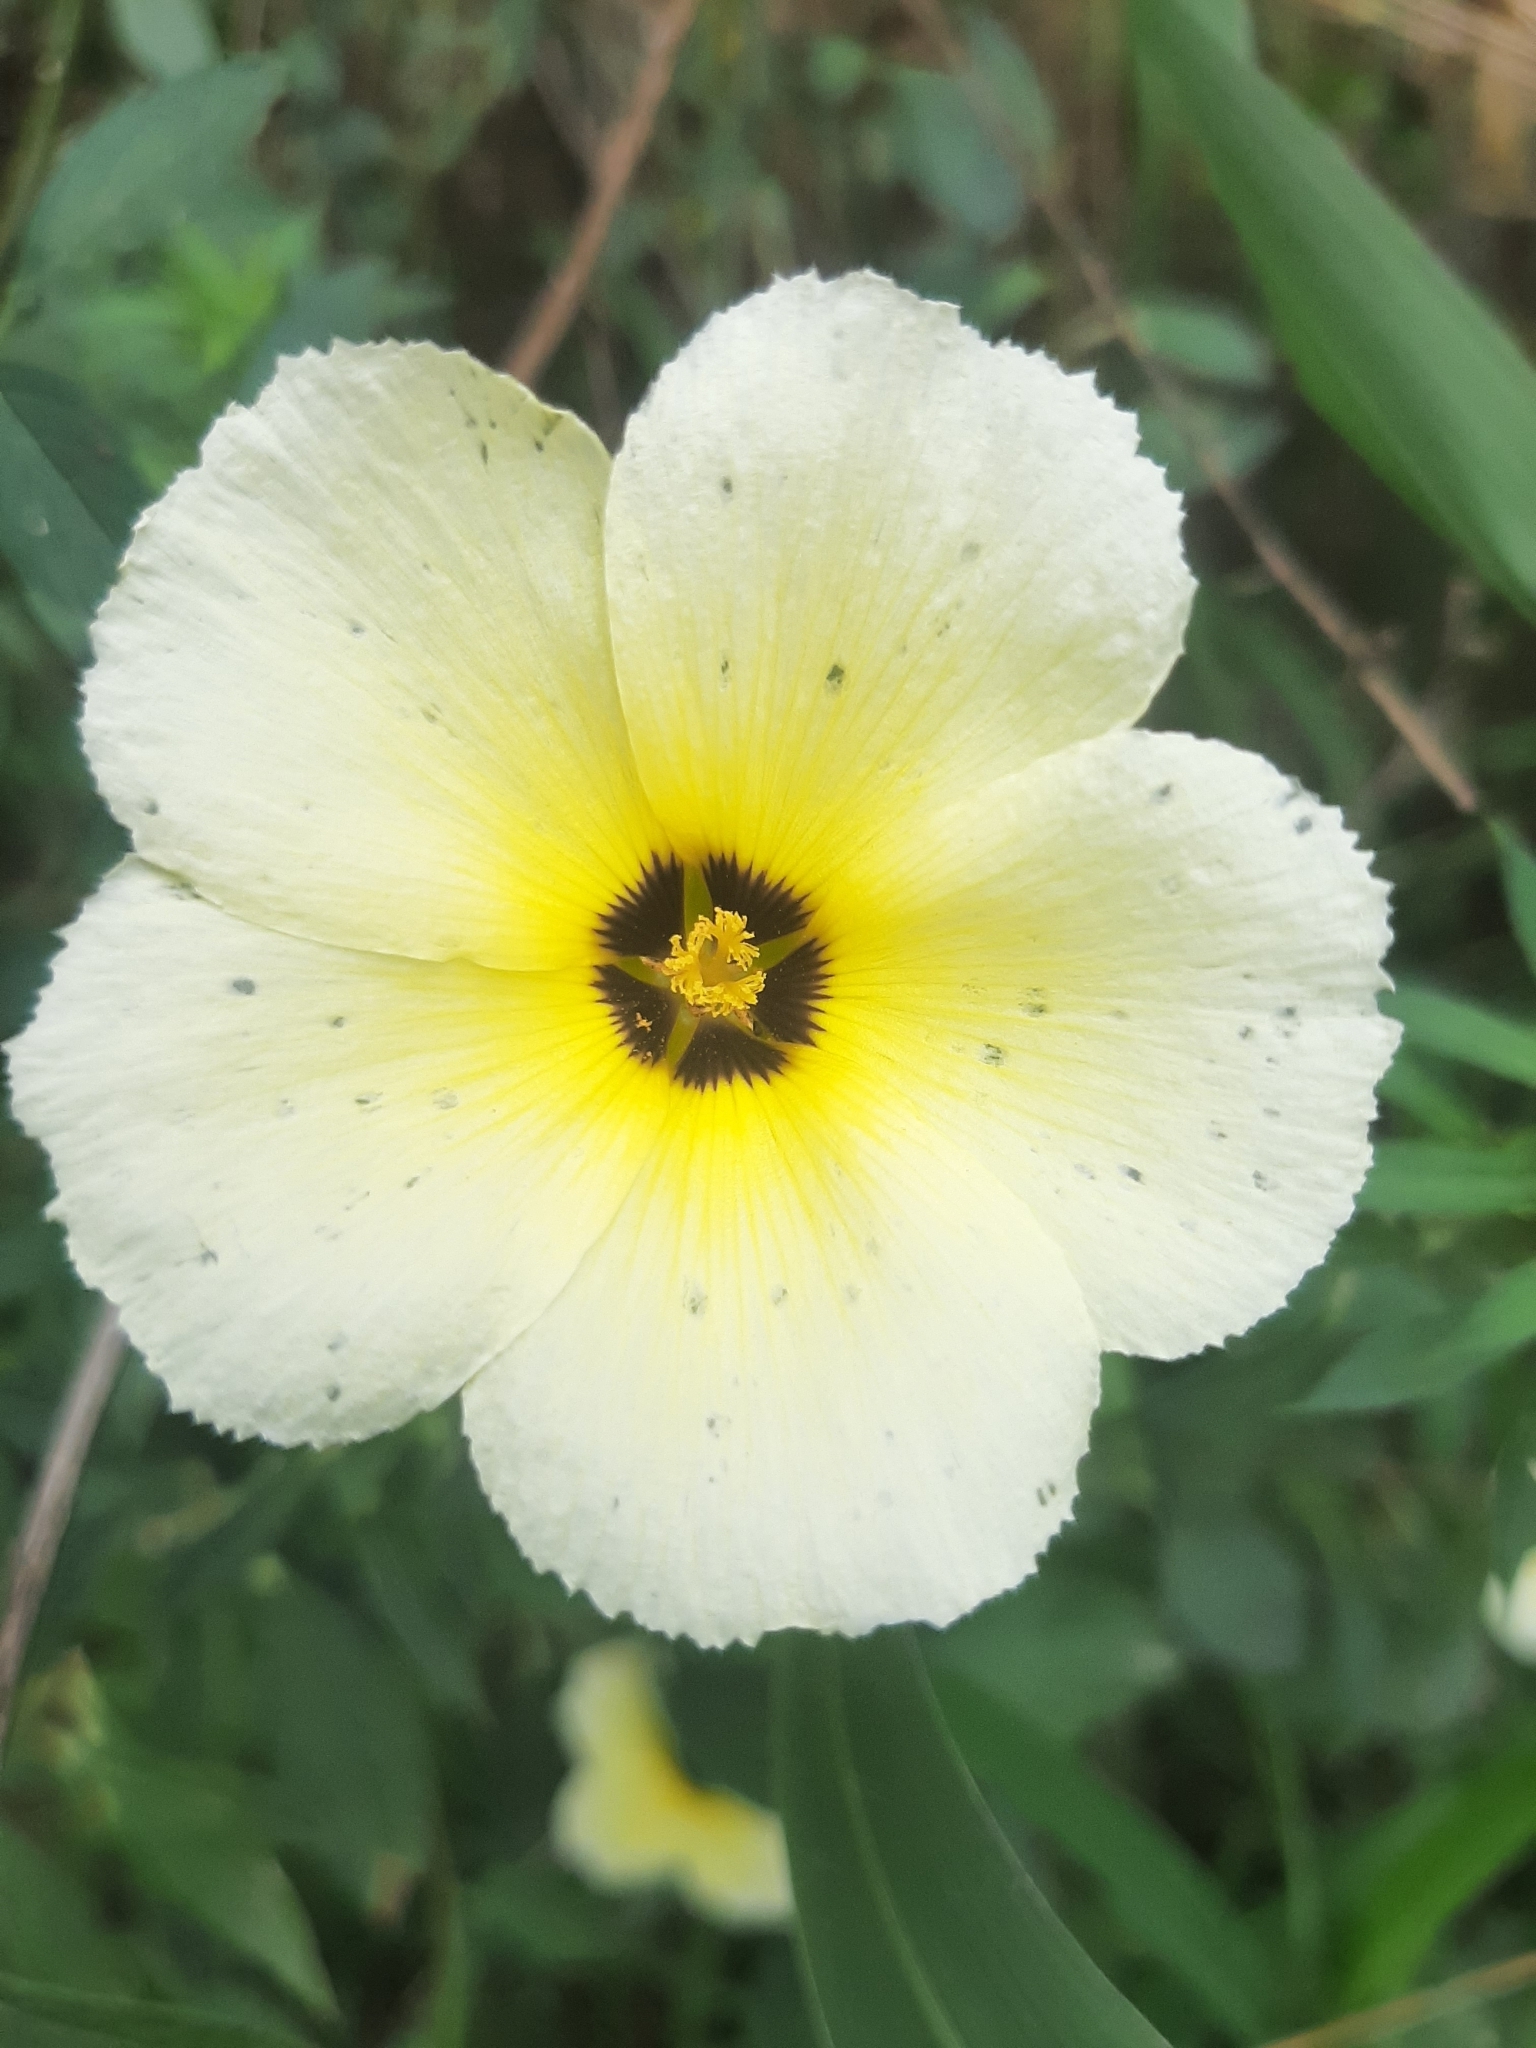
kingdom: Plantae
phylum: Tracheophyta
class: Magnoliopsida
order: Malpighiales
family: Turneraceae
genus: Turnera
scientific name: Turnera subulata
